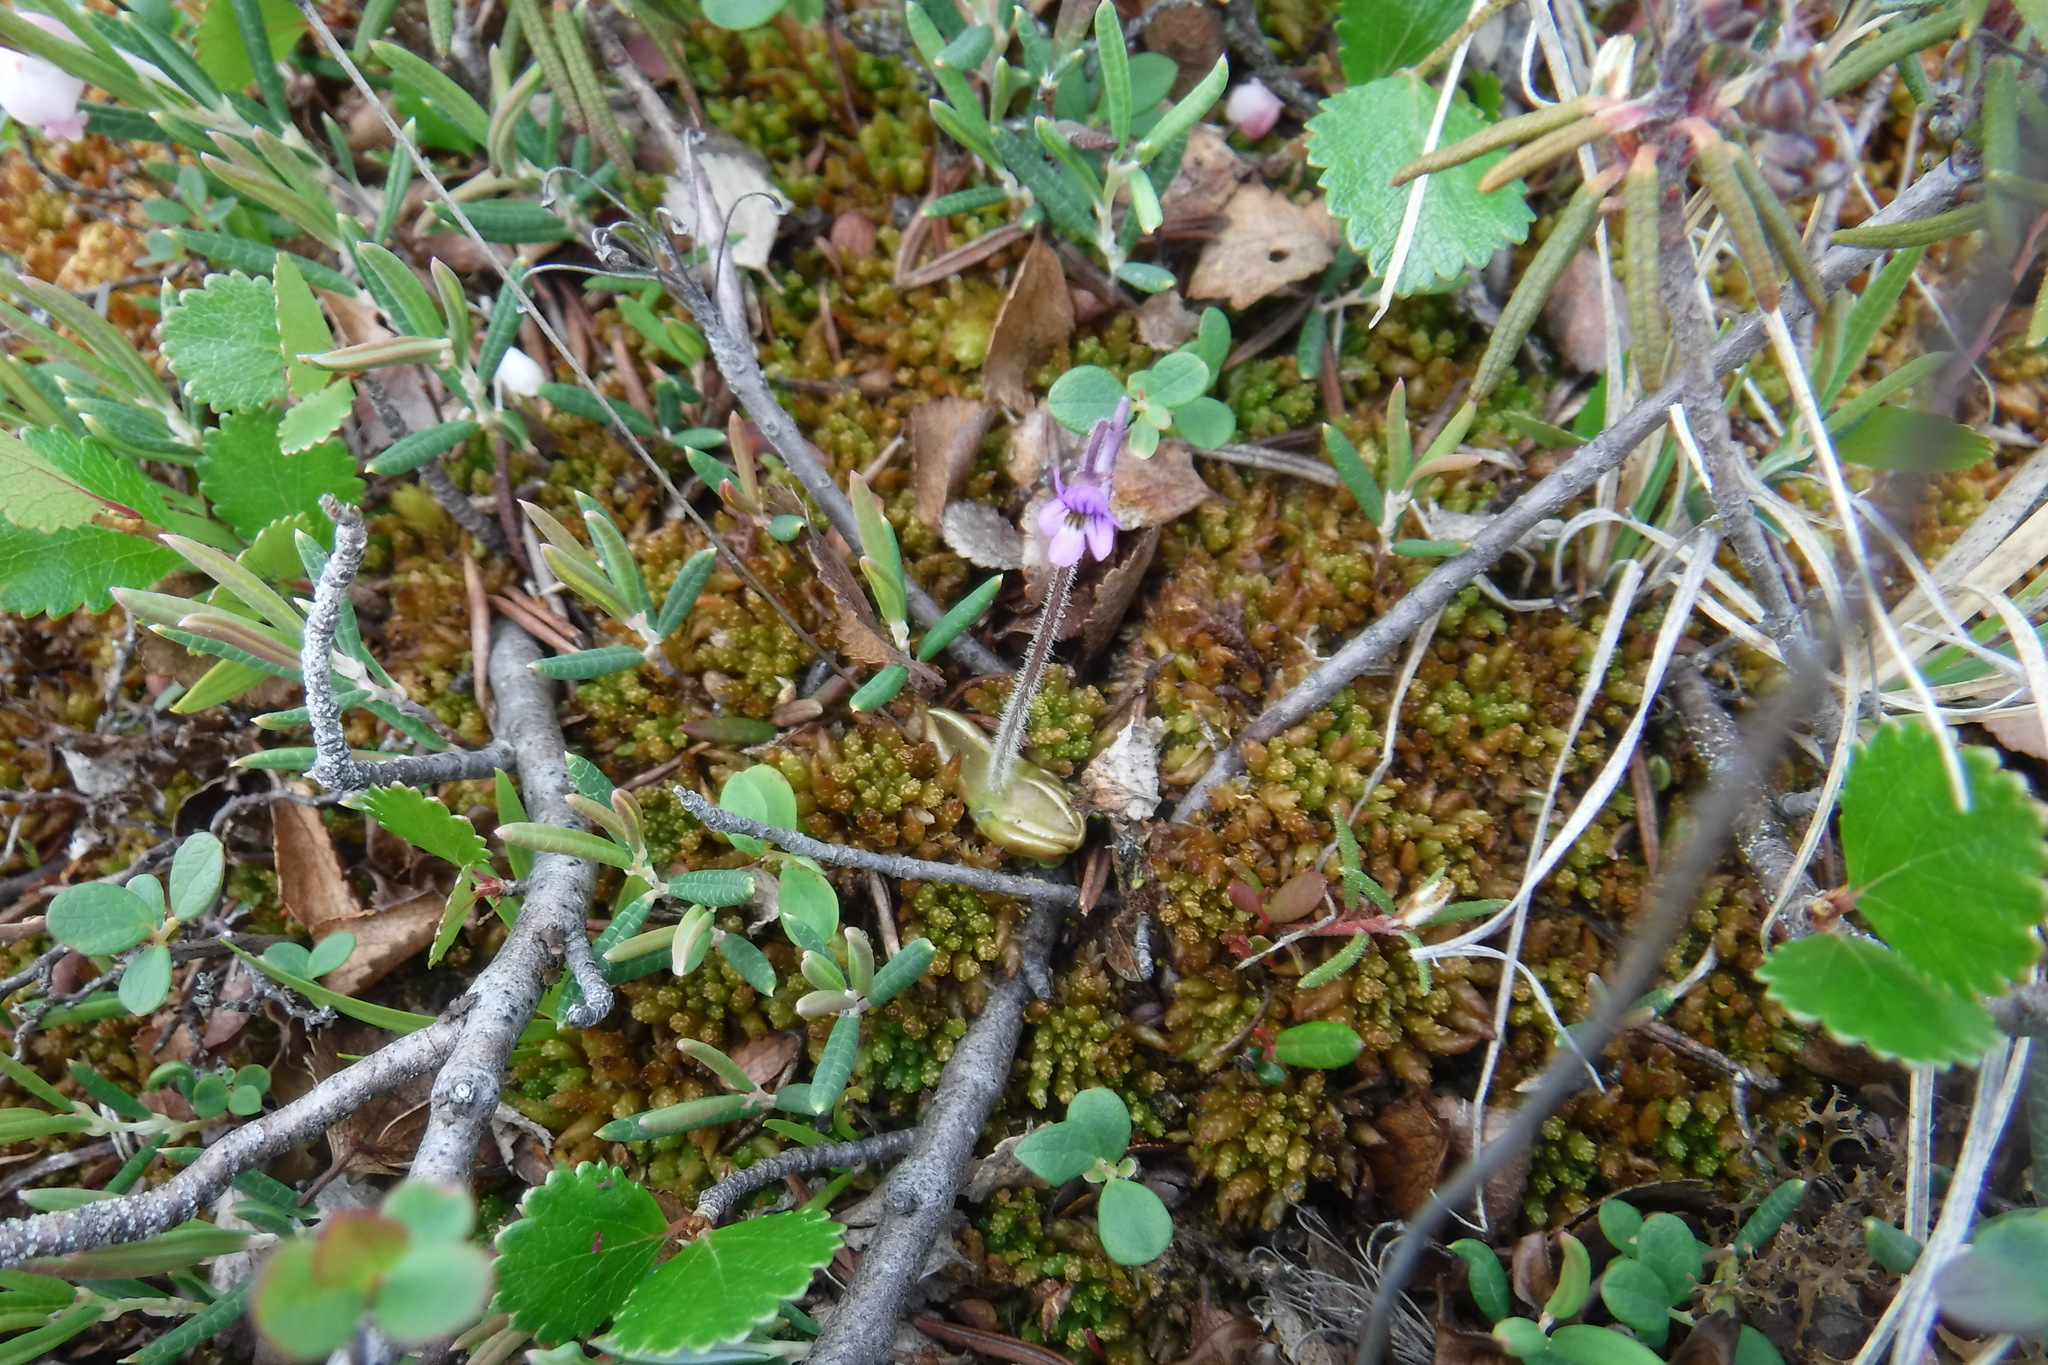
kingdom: Plantae
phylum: Tracheophyta
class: Magnoliopsida
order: Lamiales
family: Lentibulariaceae
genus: Pinguicula
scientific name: Pinguicula villosa
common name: Hairy butterwort
